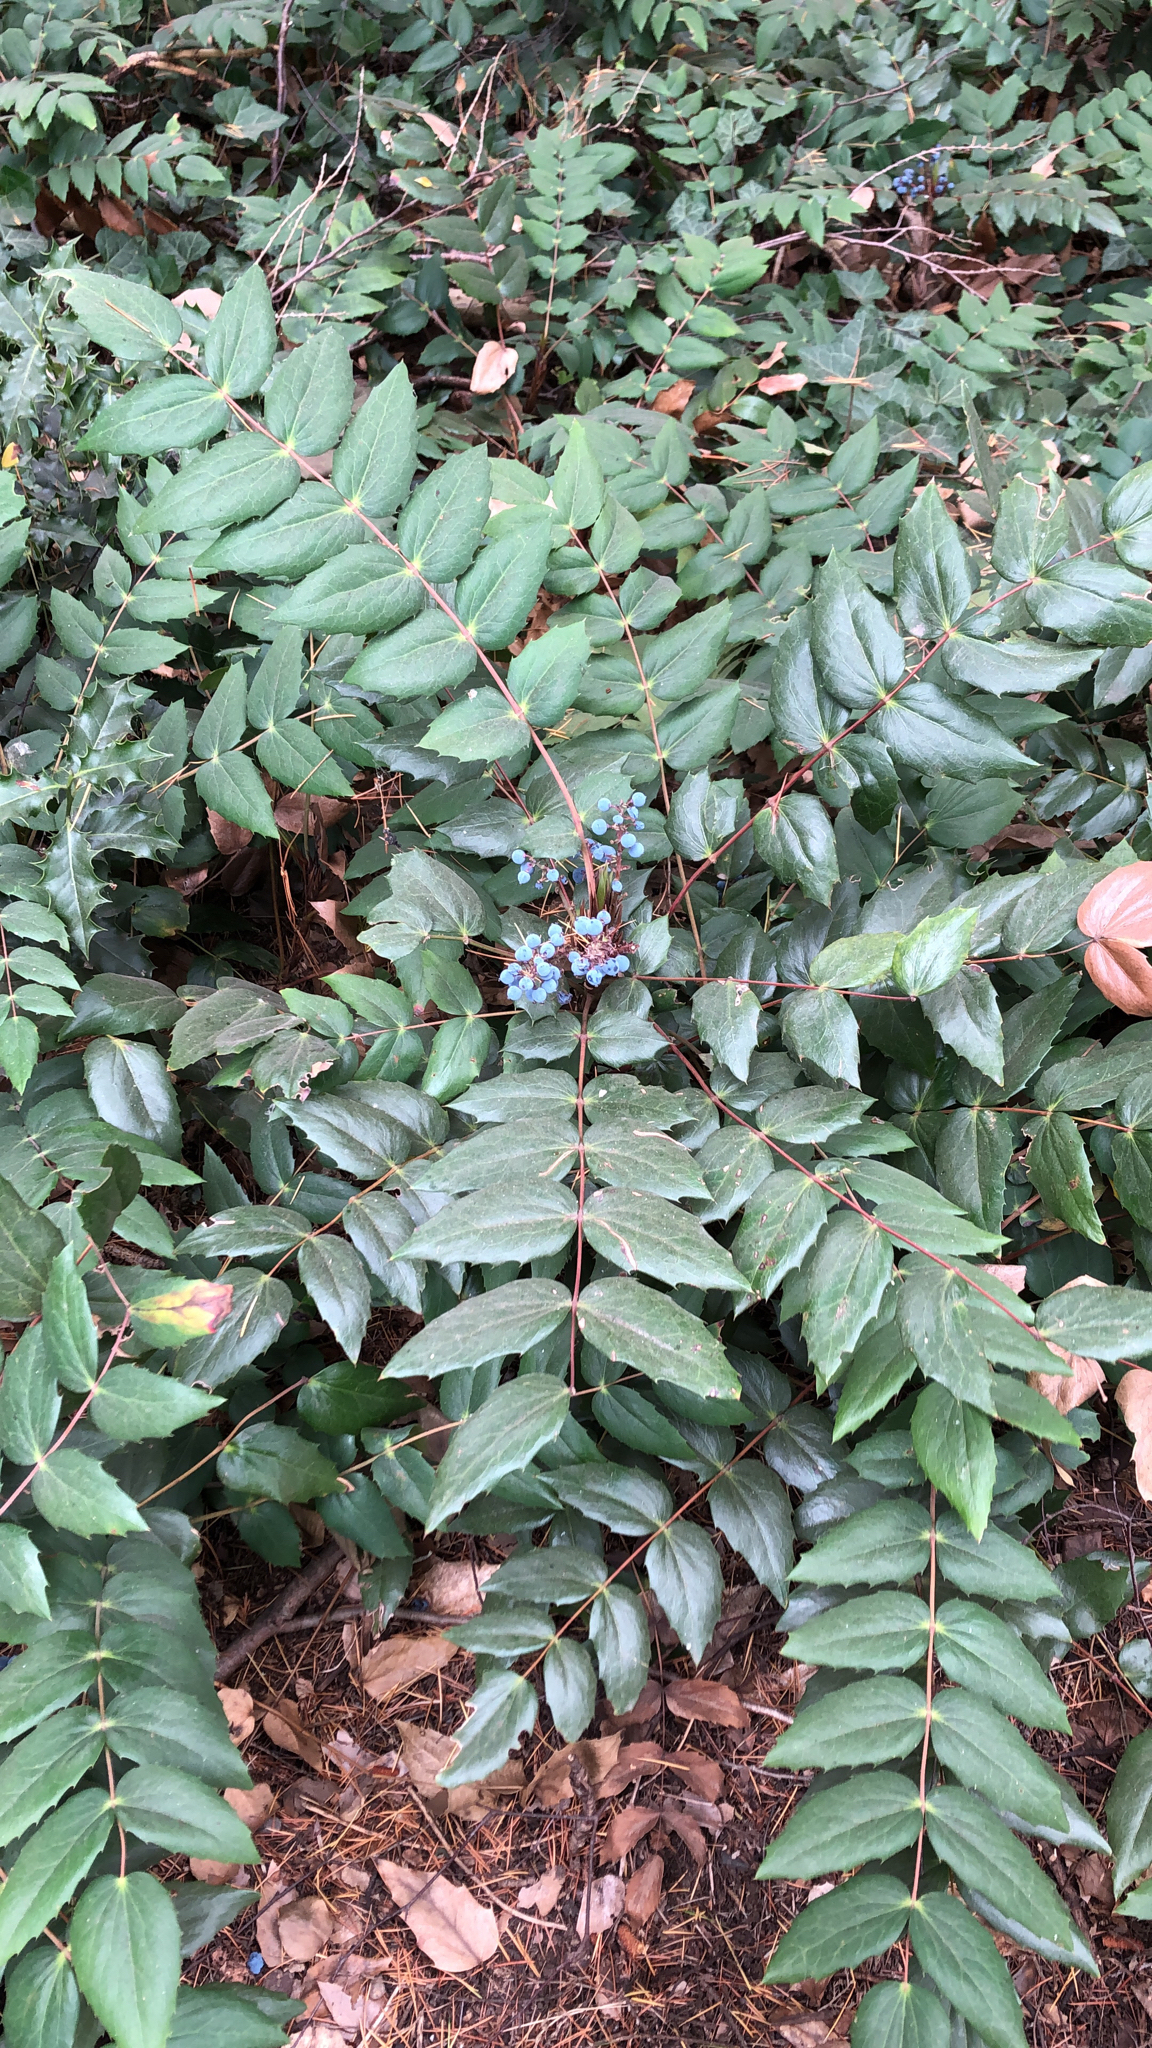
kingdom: Plantae
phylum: Tracheophyta
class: Magnoliopsida
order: Ranunculales
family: Berberidaceae
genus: Mahonia
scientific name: Mahonia nervosa
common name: Cascade oregon-grape
